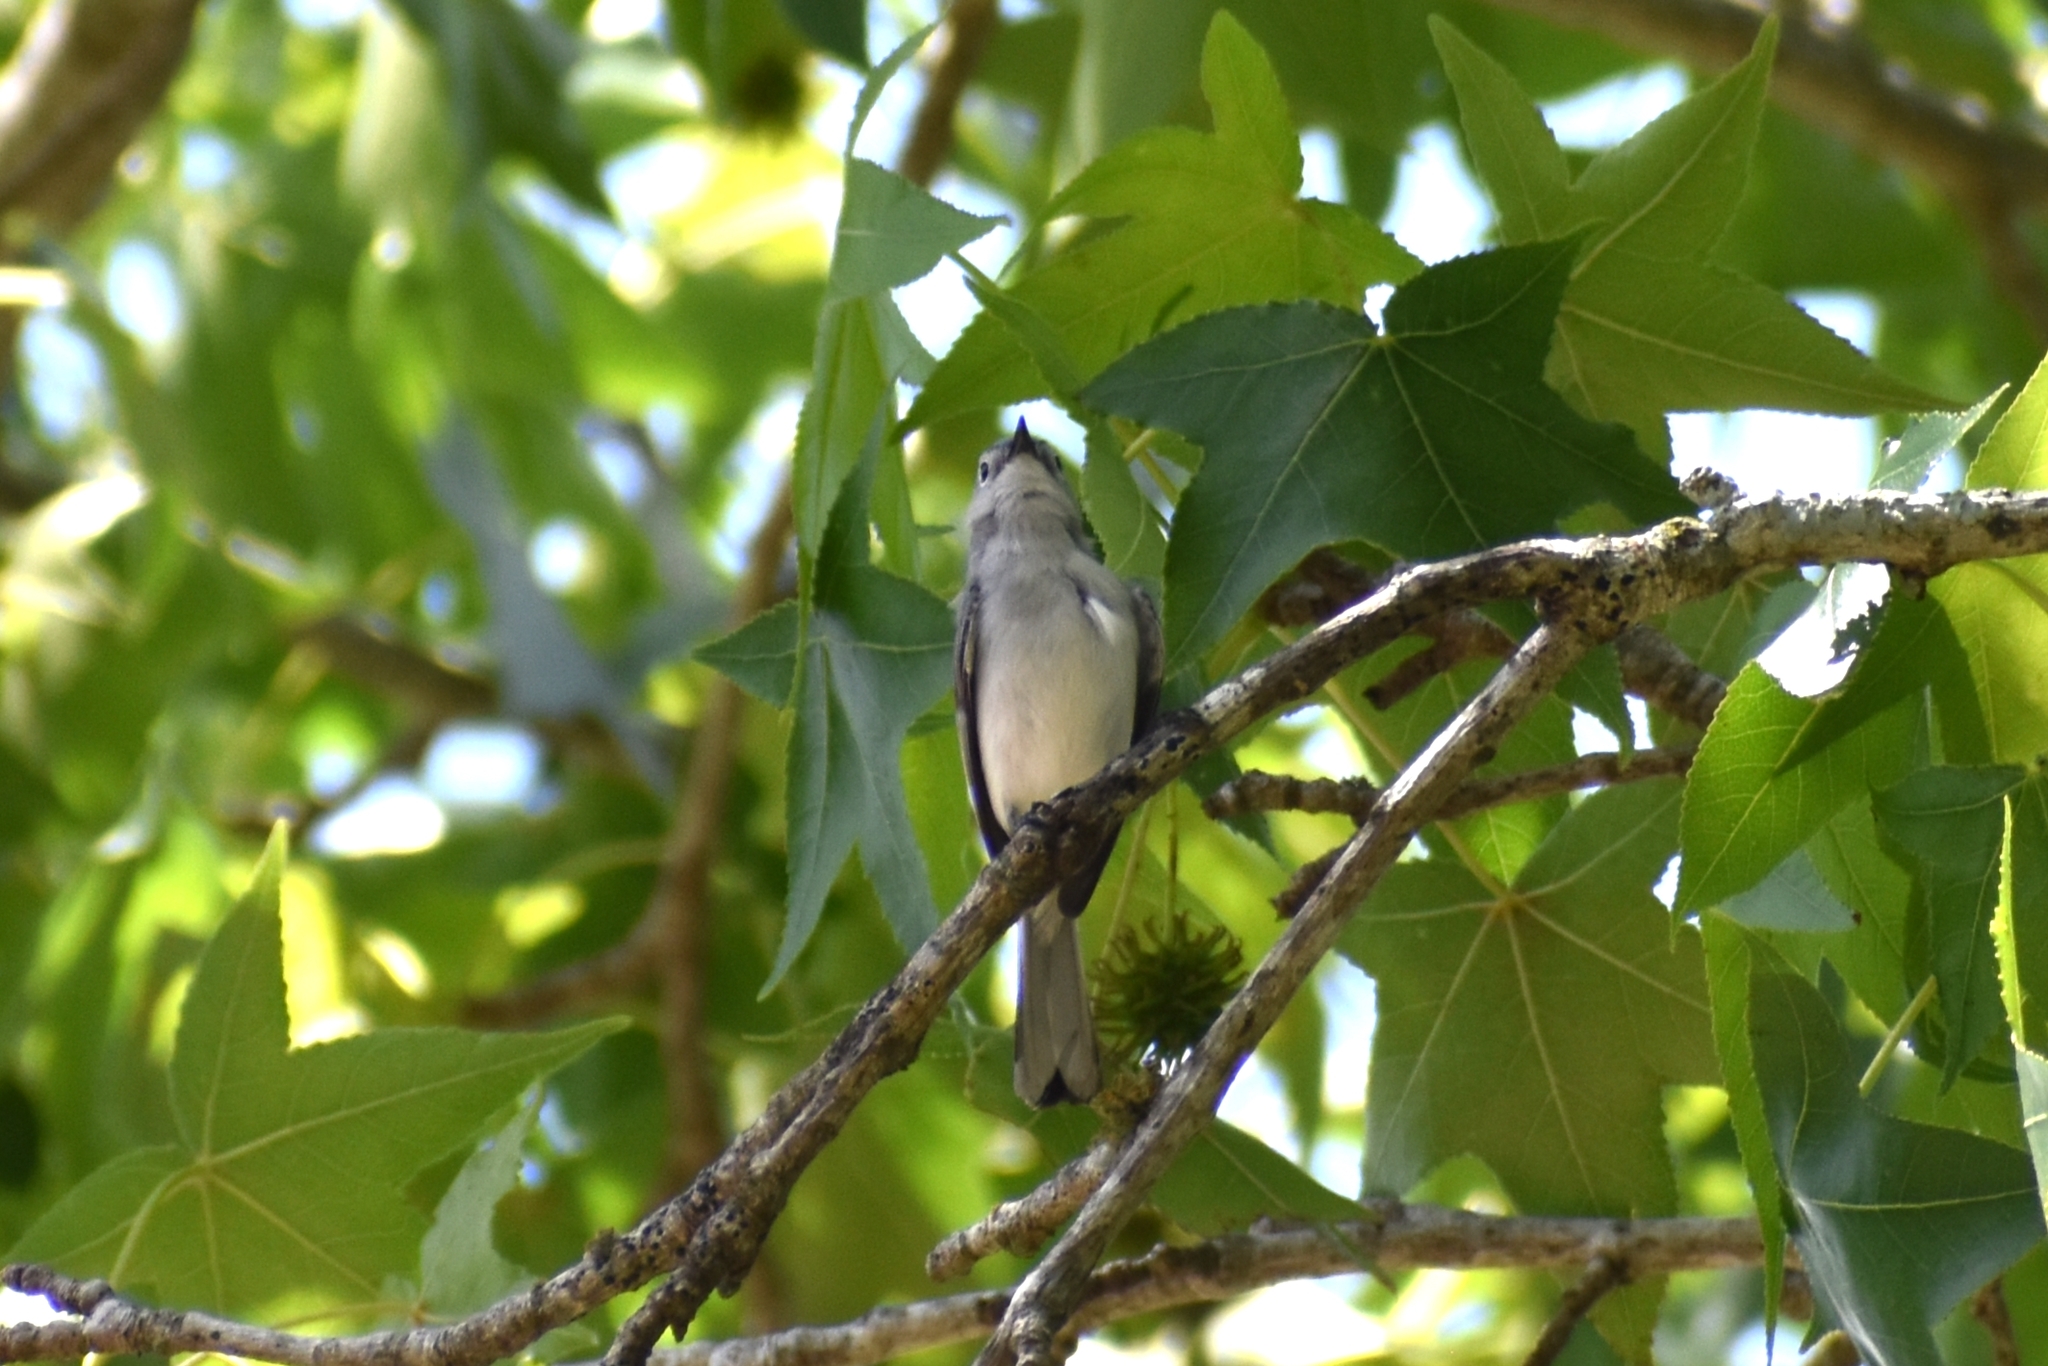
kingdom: Animalia
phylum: Chordata
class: Aves
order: Passeriformes
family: Polioptilidae
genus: Polioptila
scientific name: Polioptila caerulea
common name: Blue-gray gnatcatcher
